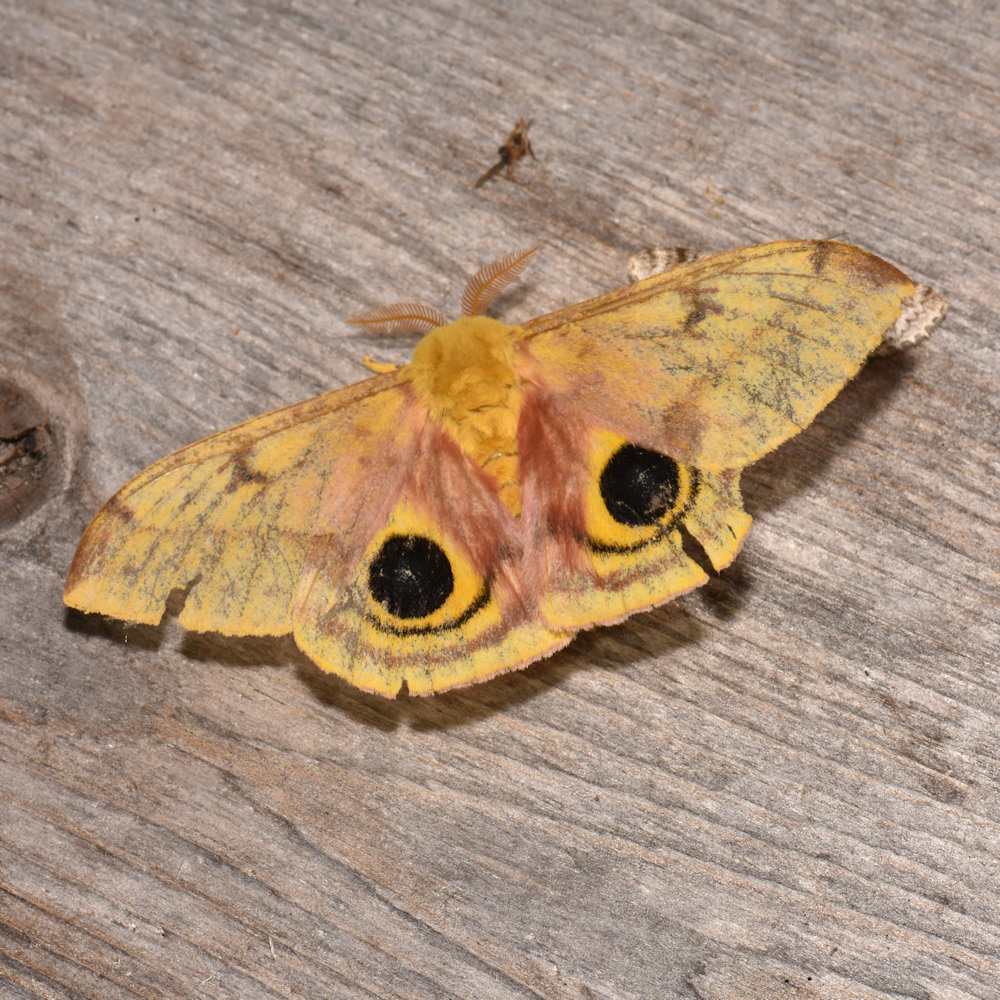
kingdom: Animalia
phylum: Arthropoda
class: Insecta
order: Lepidoptera
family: Saturniidae
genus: Automeris
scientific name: Automeris io
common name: Io moth
